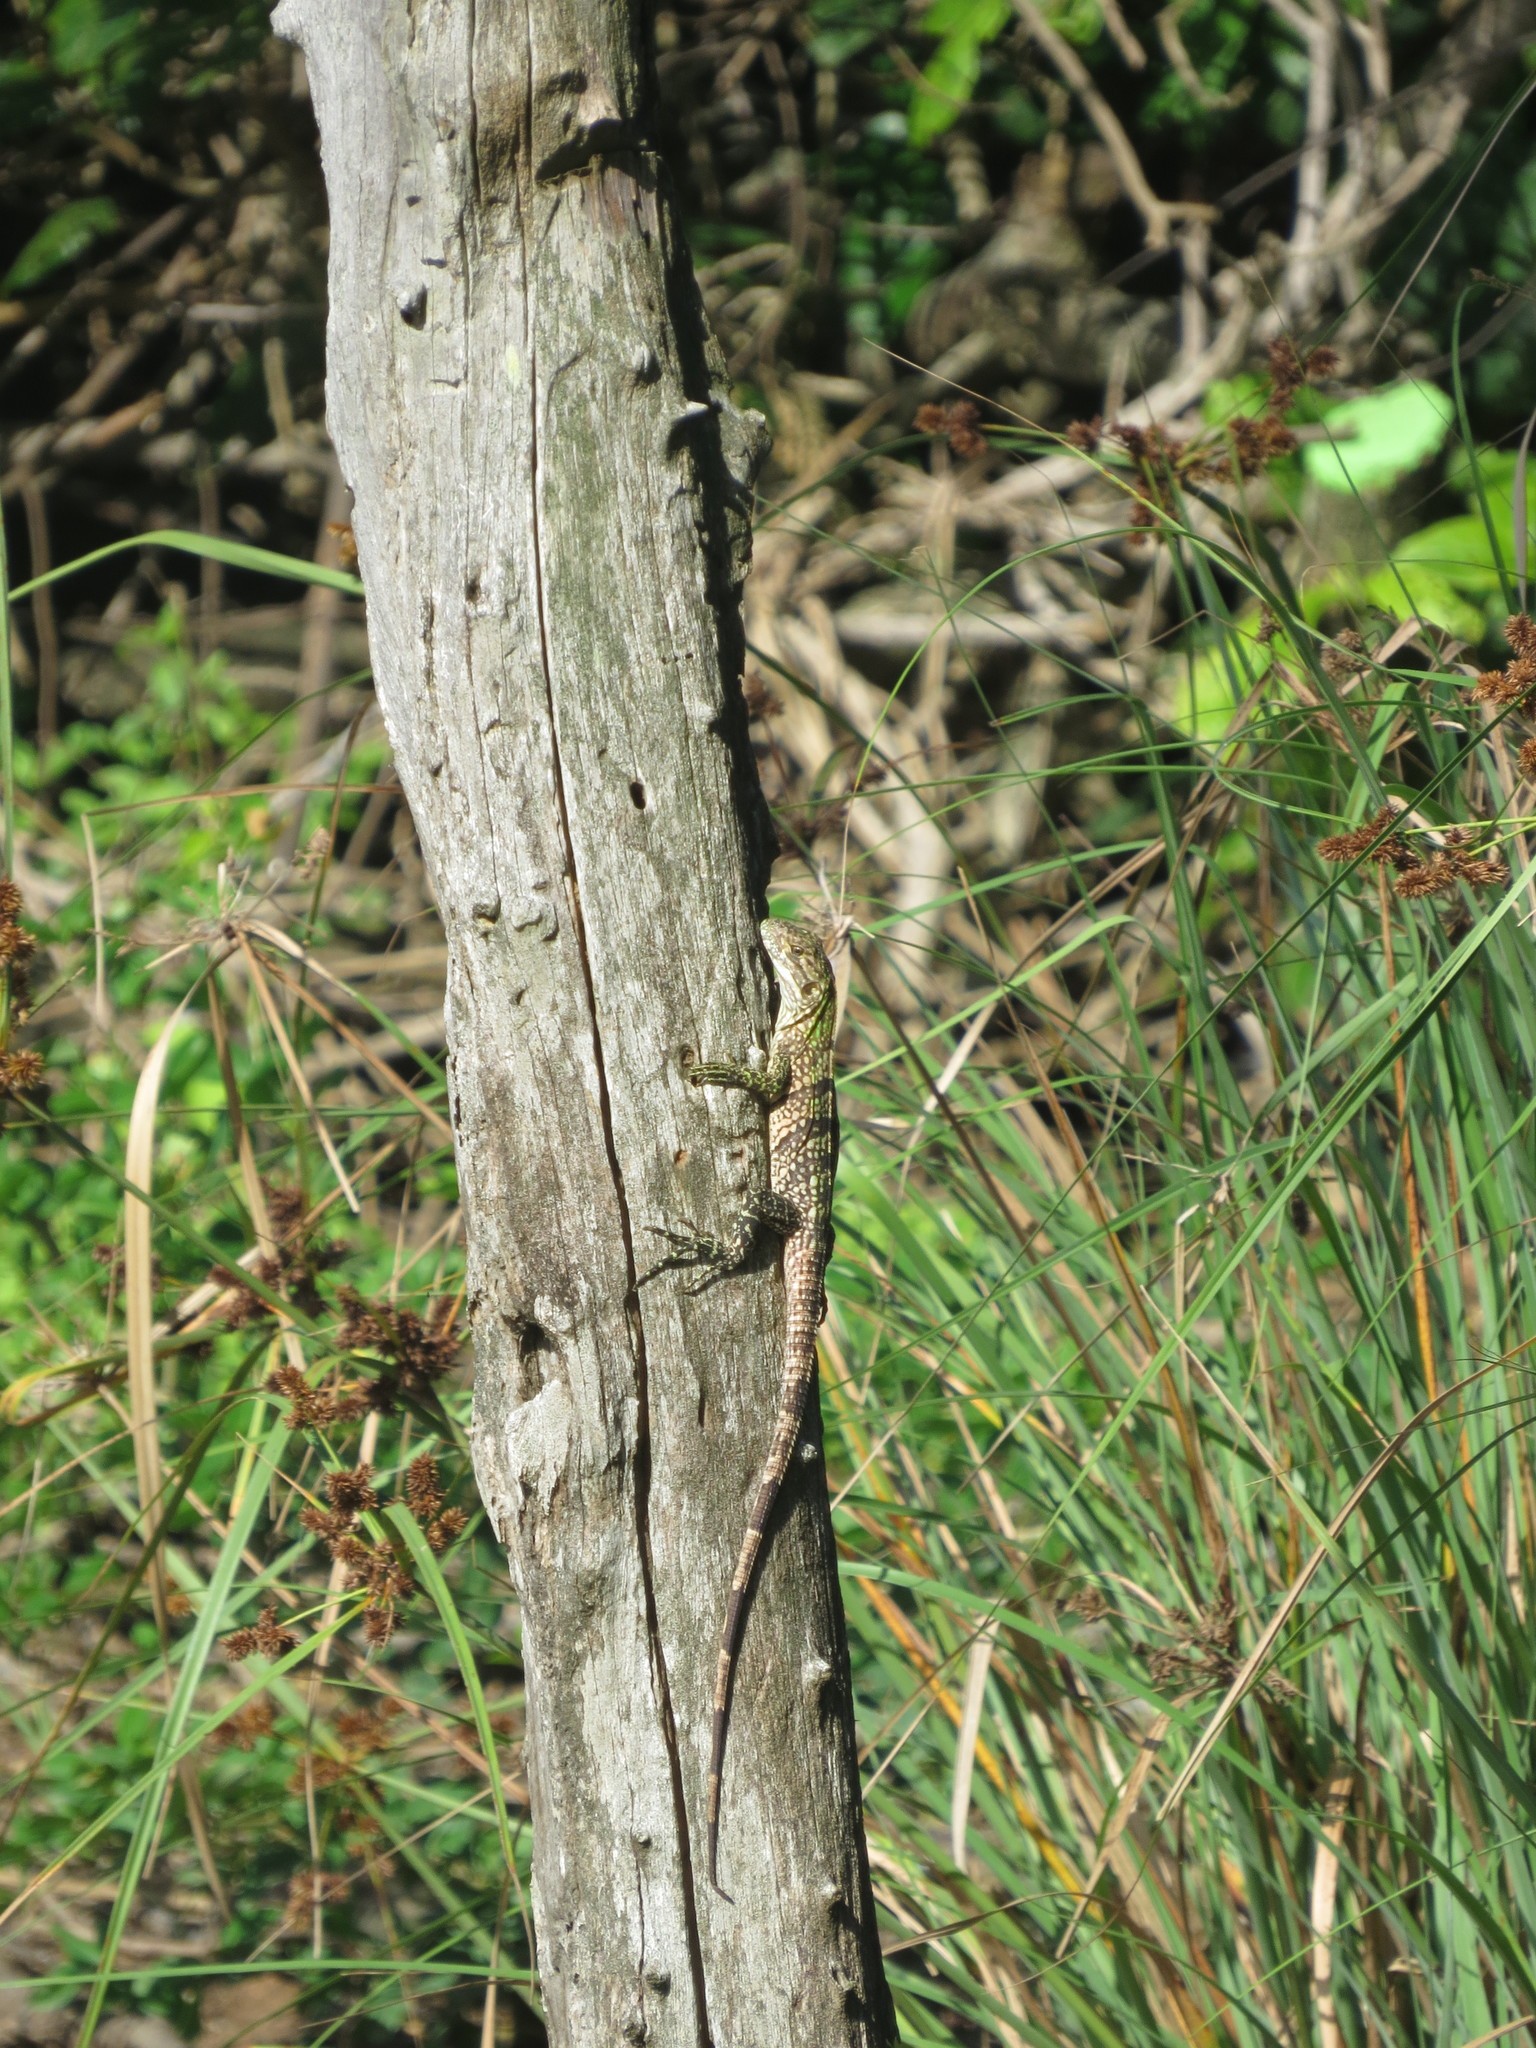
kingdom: Animalia
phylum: Chordata
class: Squamata
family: Iguanidae
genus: Ctenosaura
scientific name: Ctenosaura similis
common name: Black spiny-tailed iguana
